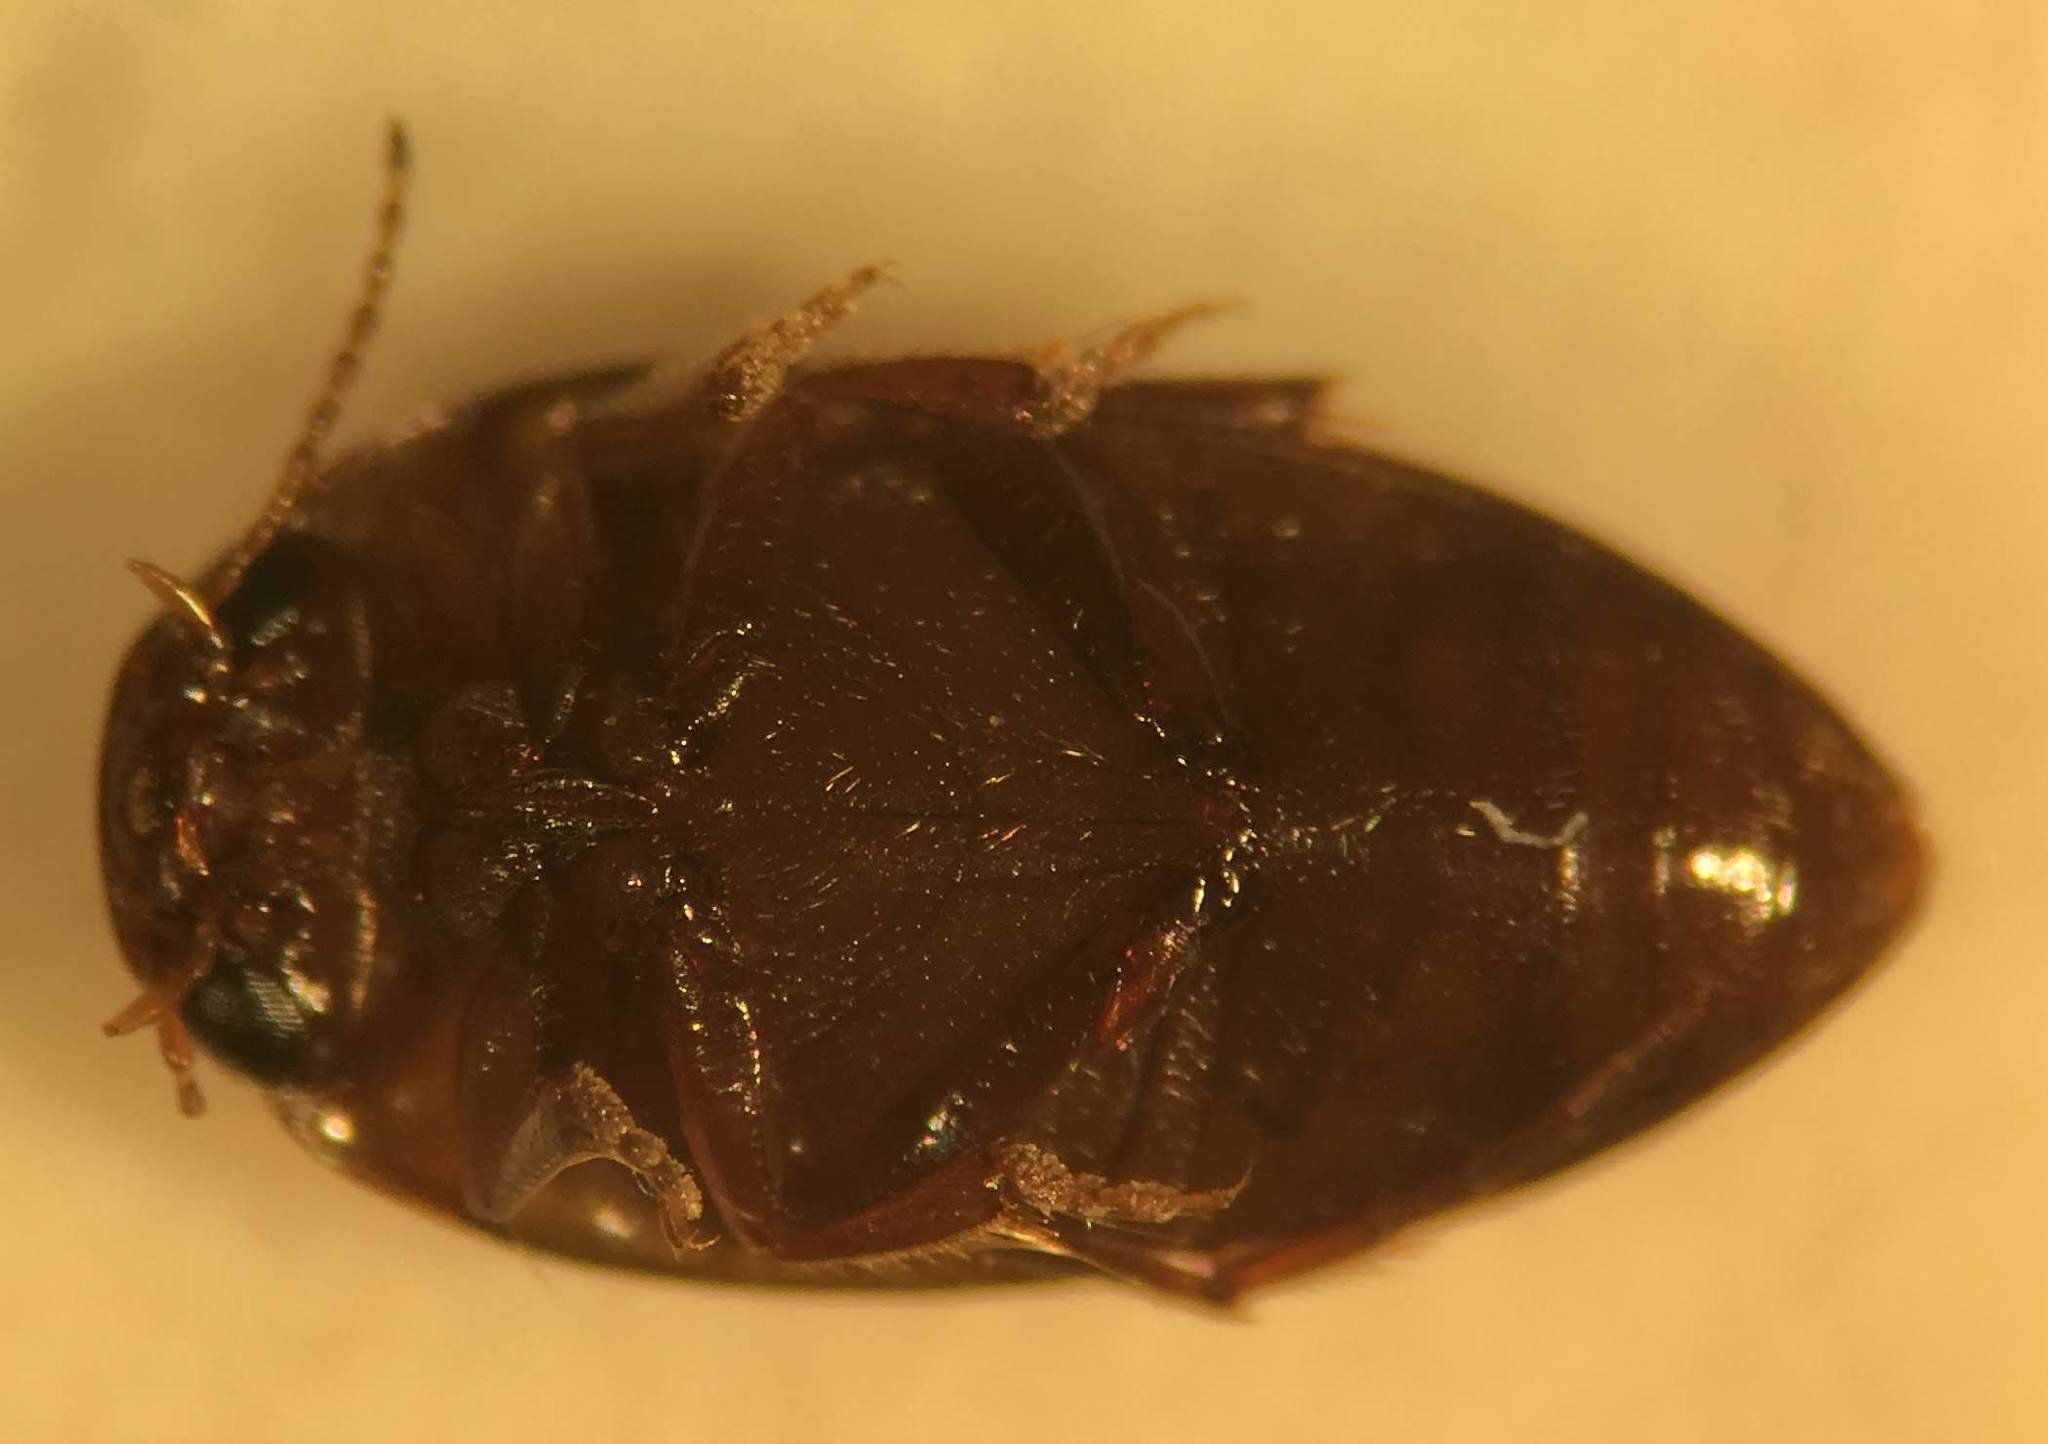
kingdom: Animalia
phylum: Arthropoda
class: Insecta
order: Coleoptera
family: Dytiscidae
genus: Neoporus
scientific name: Neoporus blanchardi
